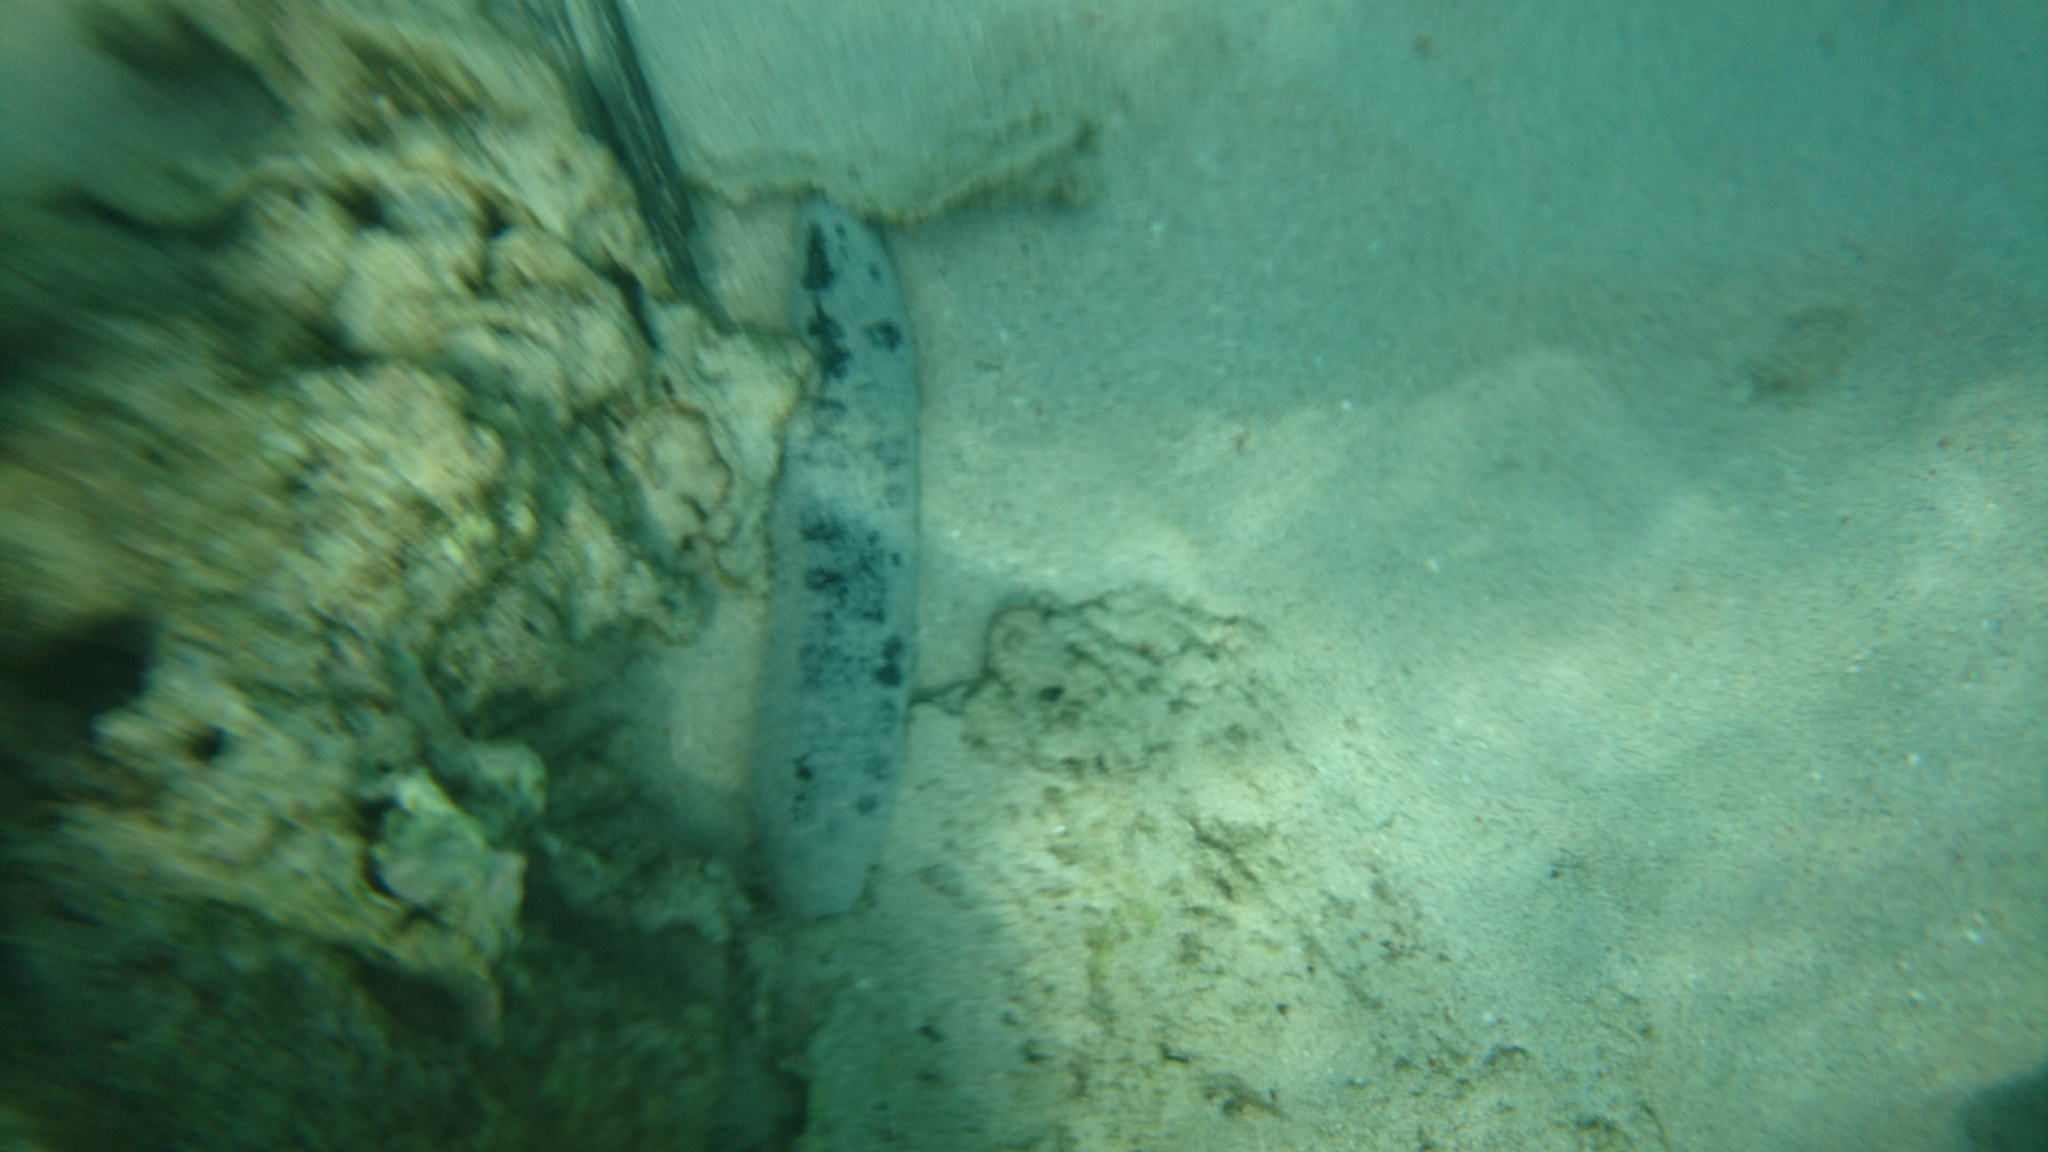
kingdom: Animalia
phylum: Echinodermata
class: Holothuroidea
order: Holothuriida
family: Holothuriidae
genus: Holothuria
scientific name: Holothuria atra
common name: Lollyfish
